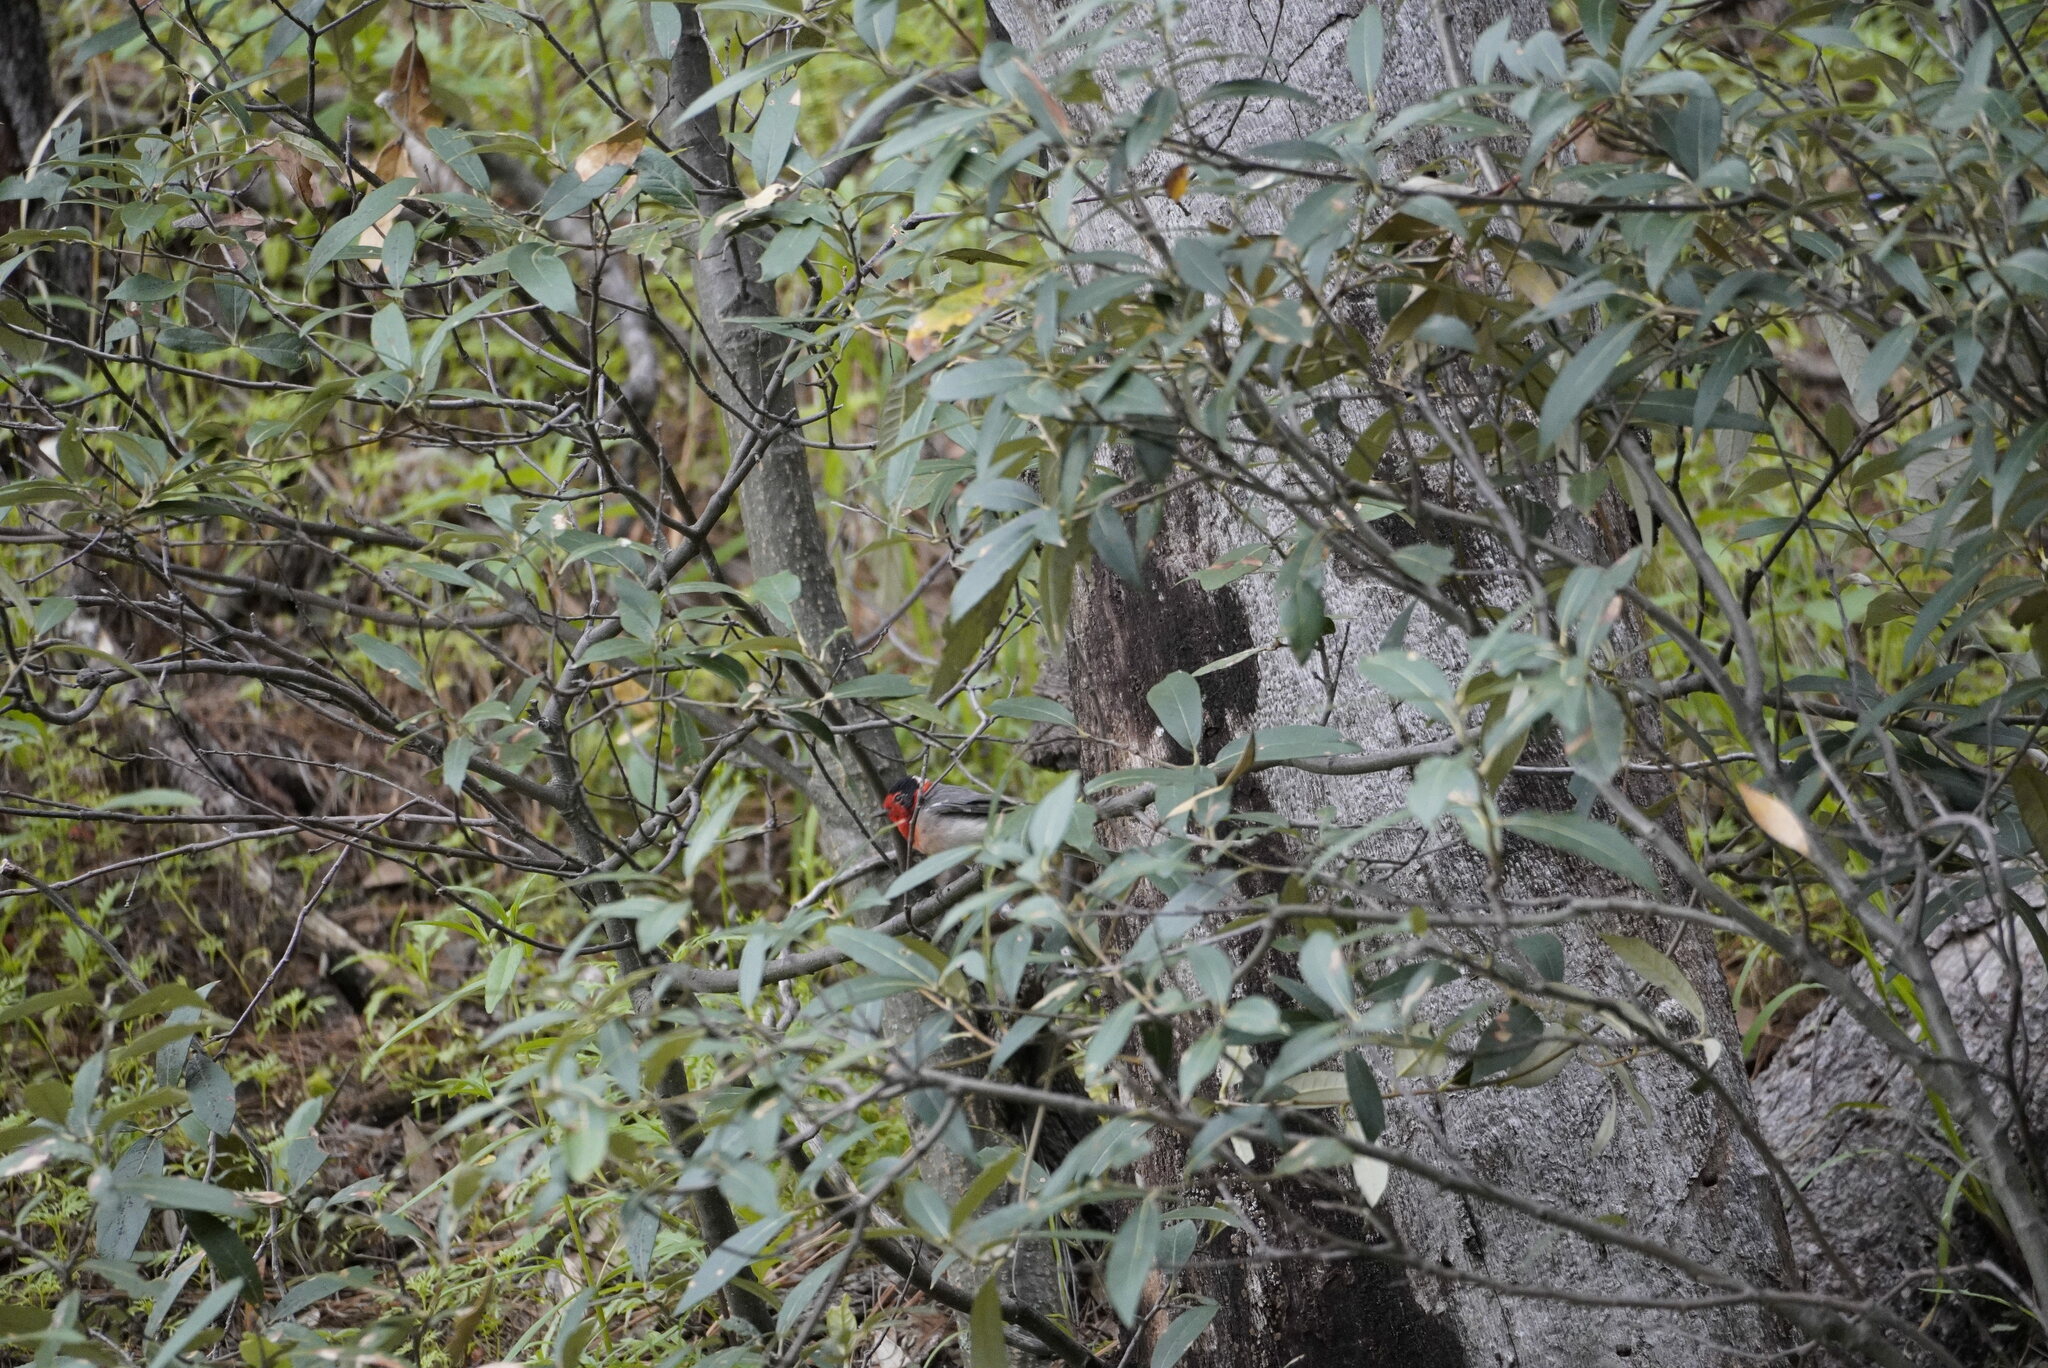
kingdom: Animalia
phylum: Chordata
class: Aves
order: Passeriformes
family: Parulidae
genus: Cardellina
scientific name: Cardellina rubrifrons
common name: Red-faced warbler
